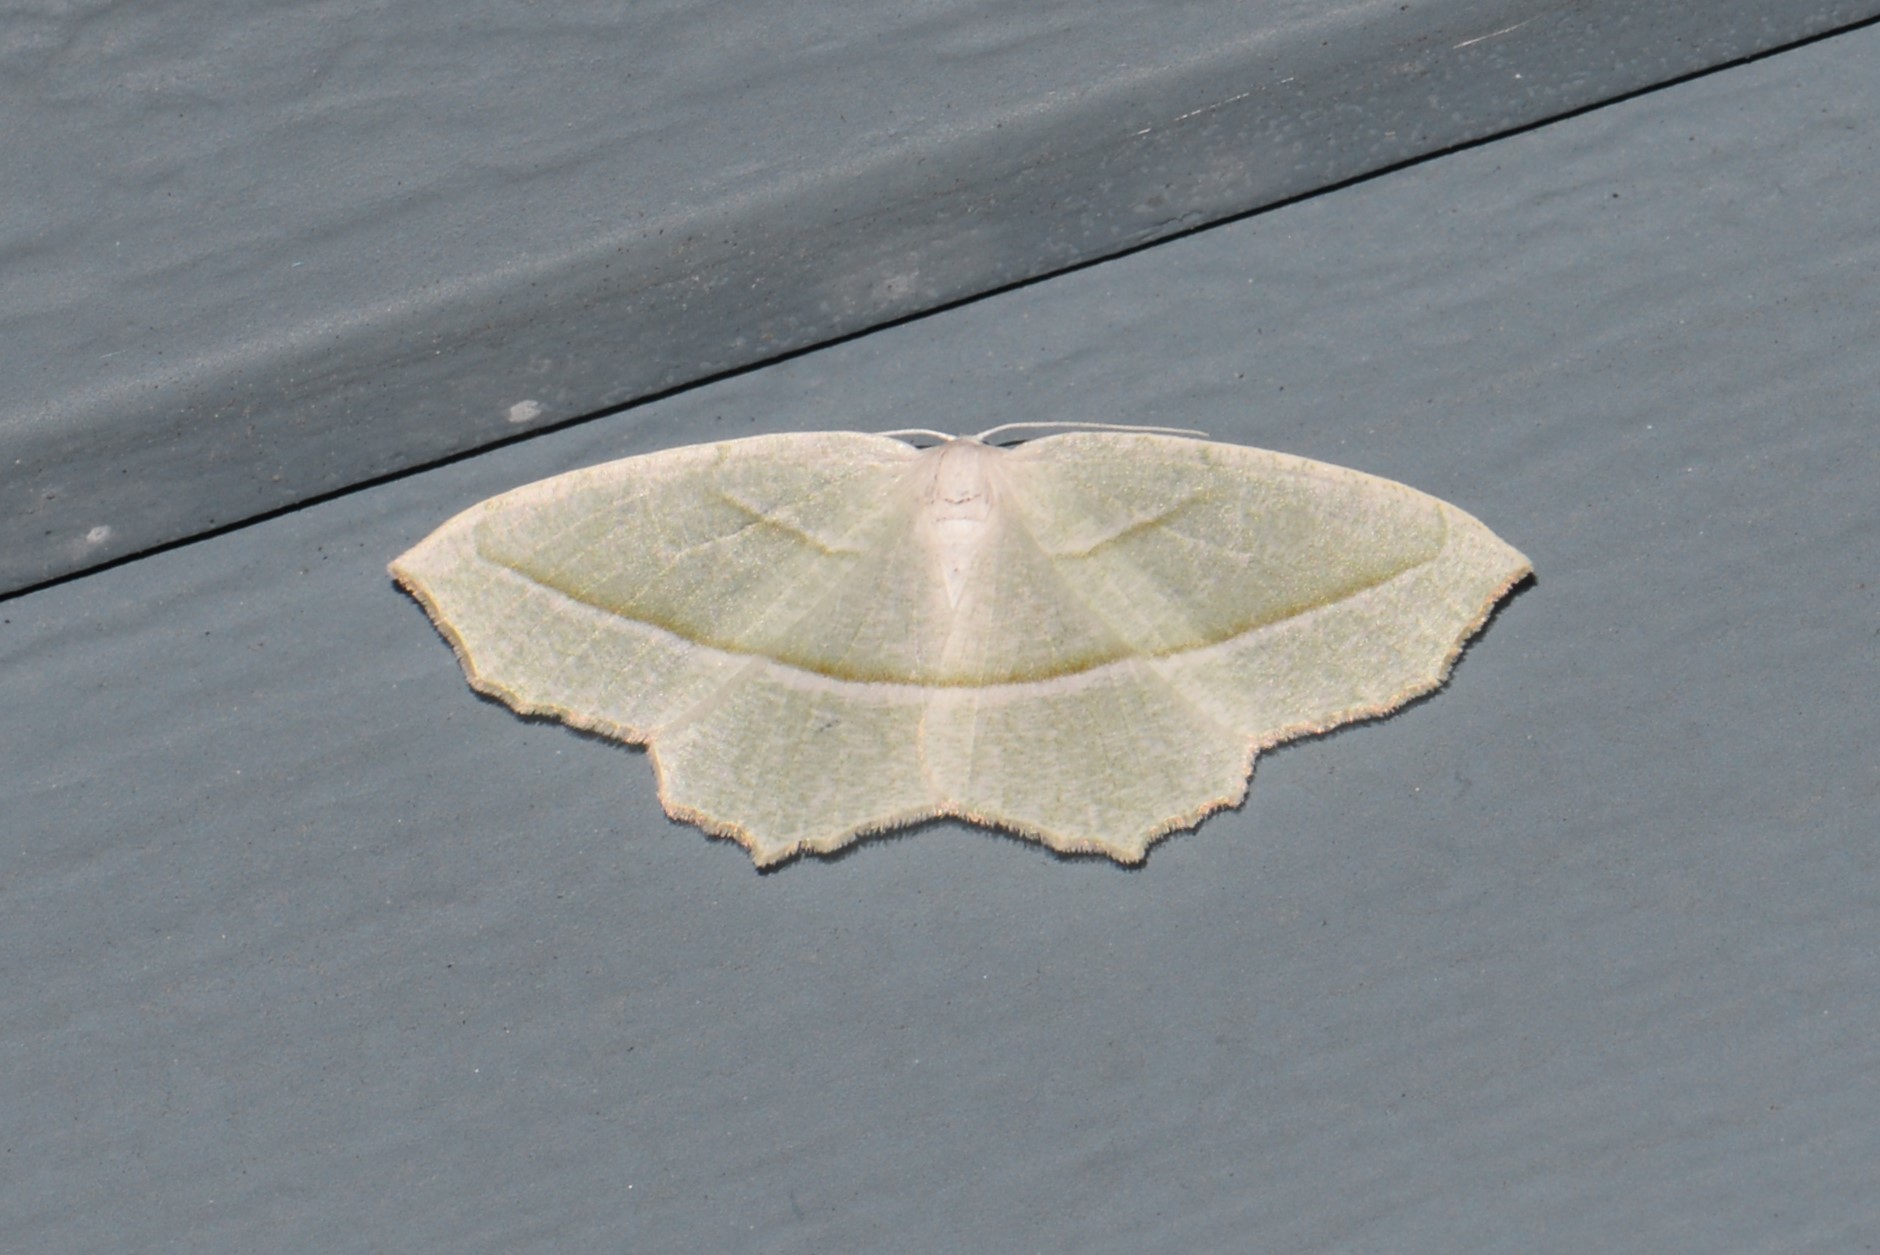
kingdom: Animalia
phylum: Arthropoda
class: Insecta
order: Lepidoptera
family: Geometridae
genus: Campaea
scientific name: Campaea perlata
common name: Fringed looper
